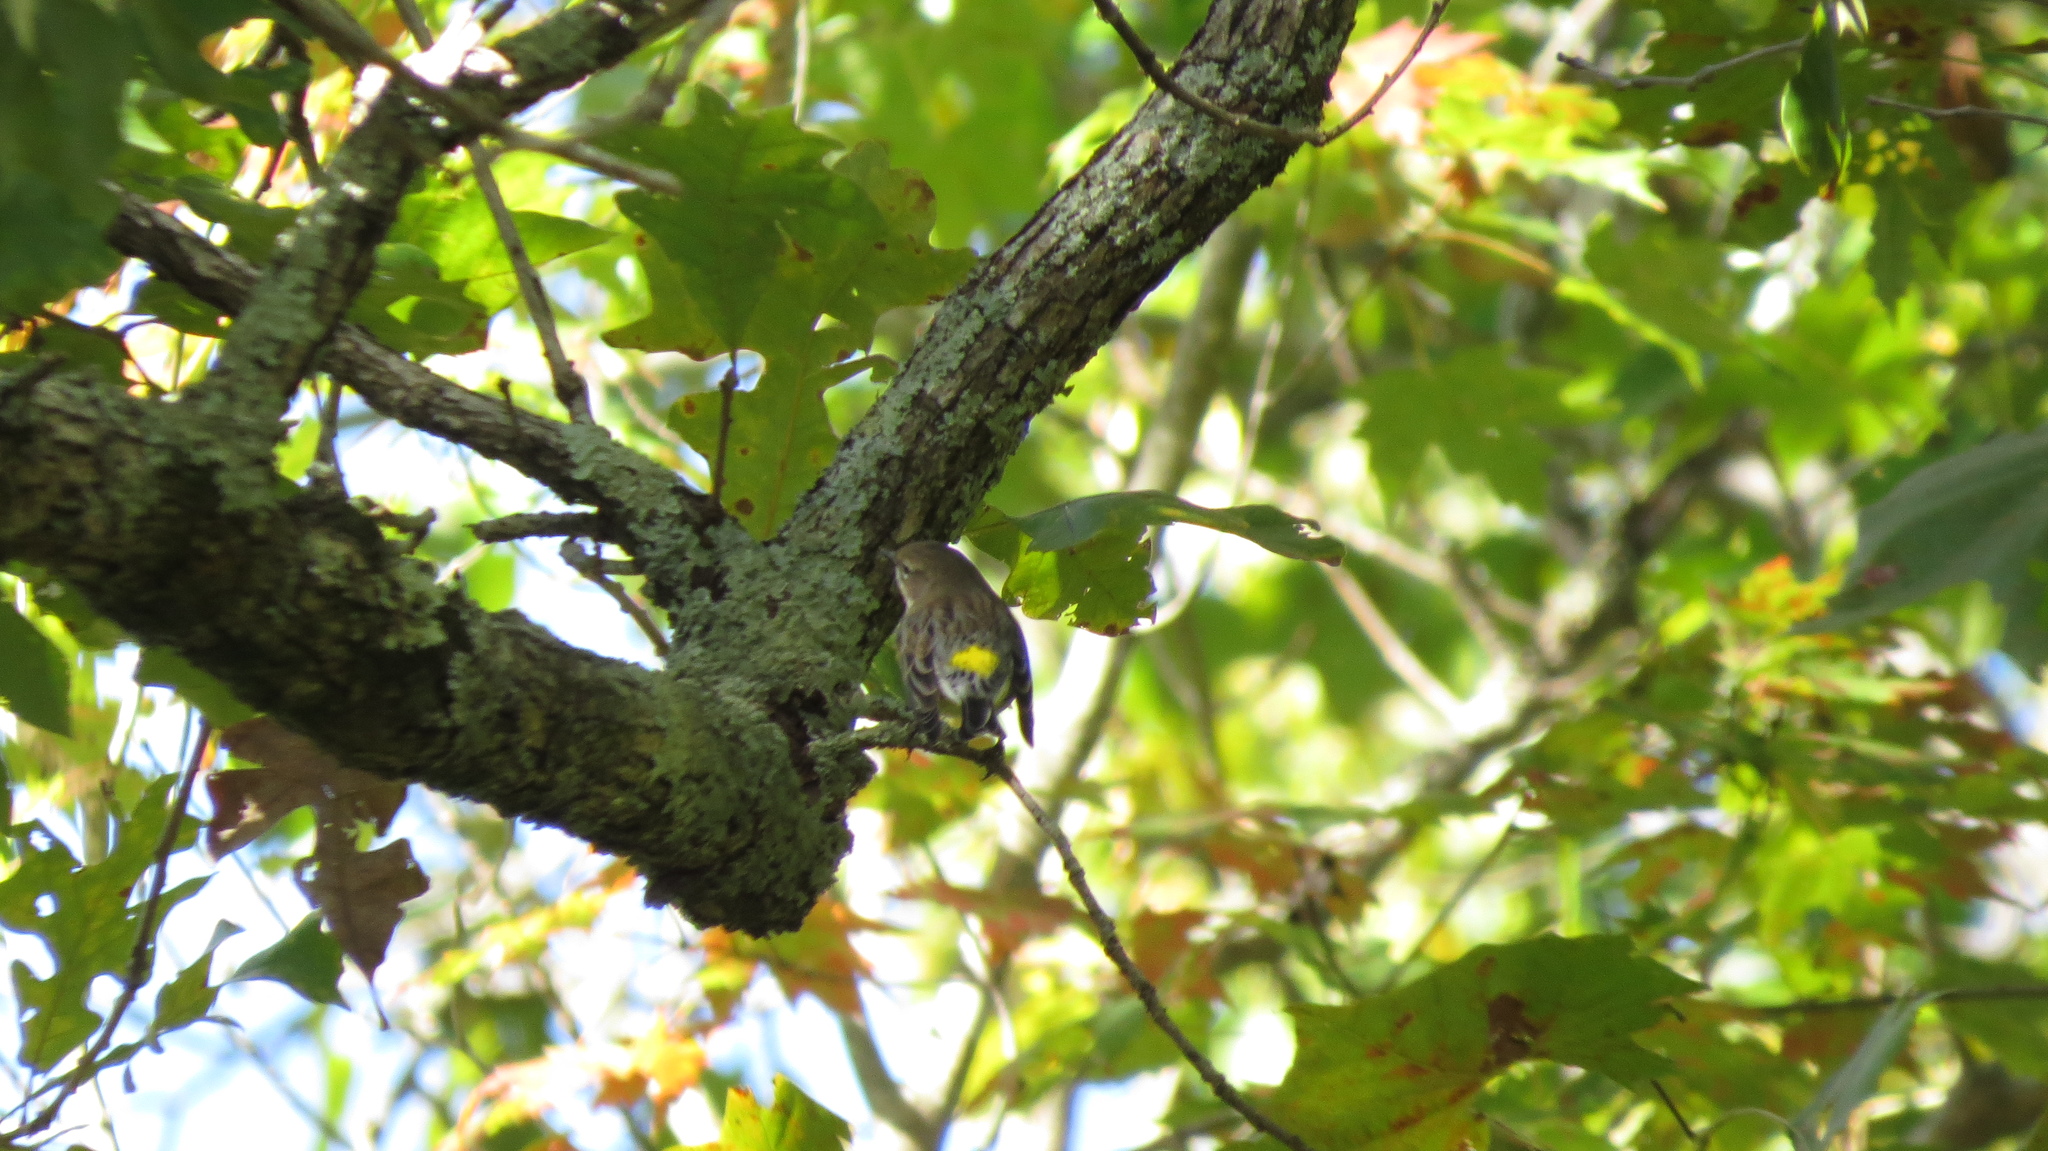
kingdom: Animalia
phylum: Chordata
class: Aves
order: Passeriformes
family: Parulidae
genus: Setophaga
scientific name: Setophaga coronata
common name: Myrtle warbler
